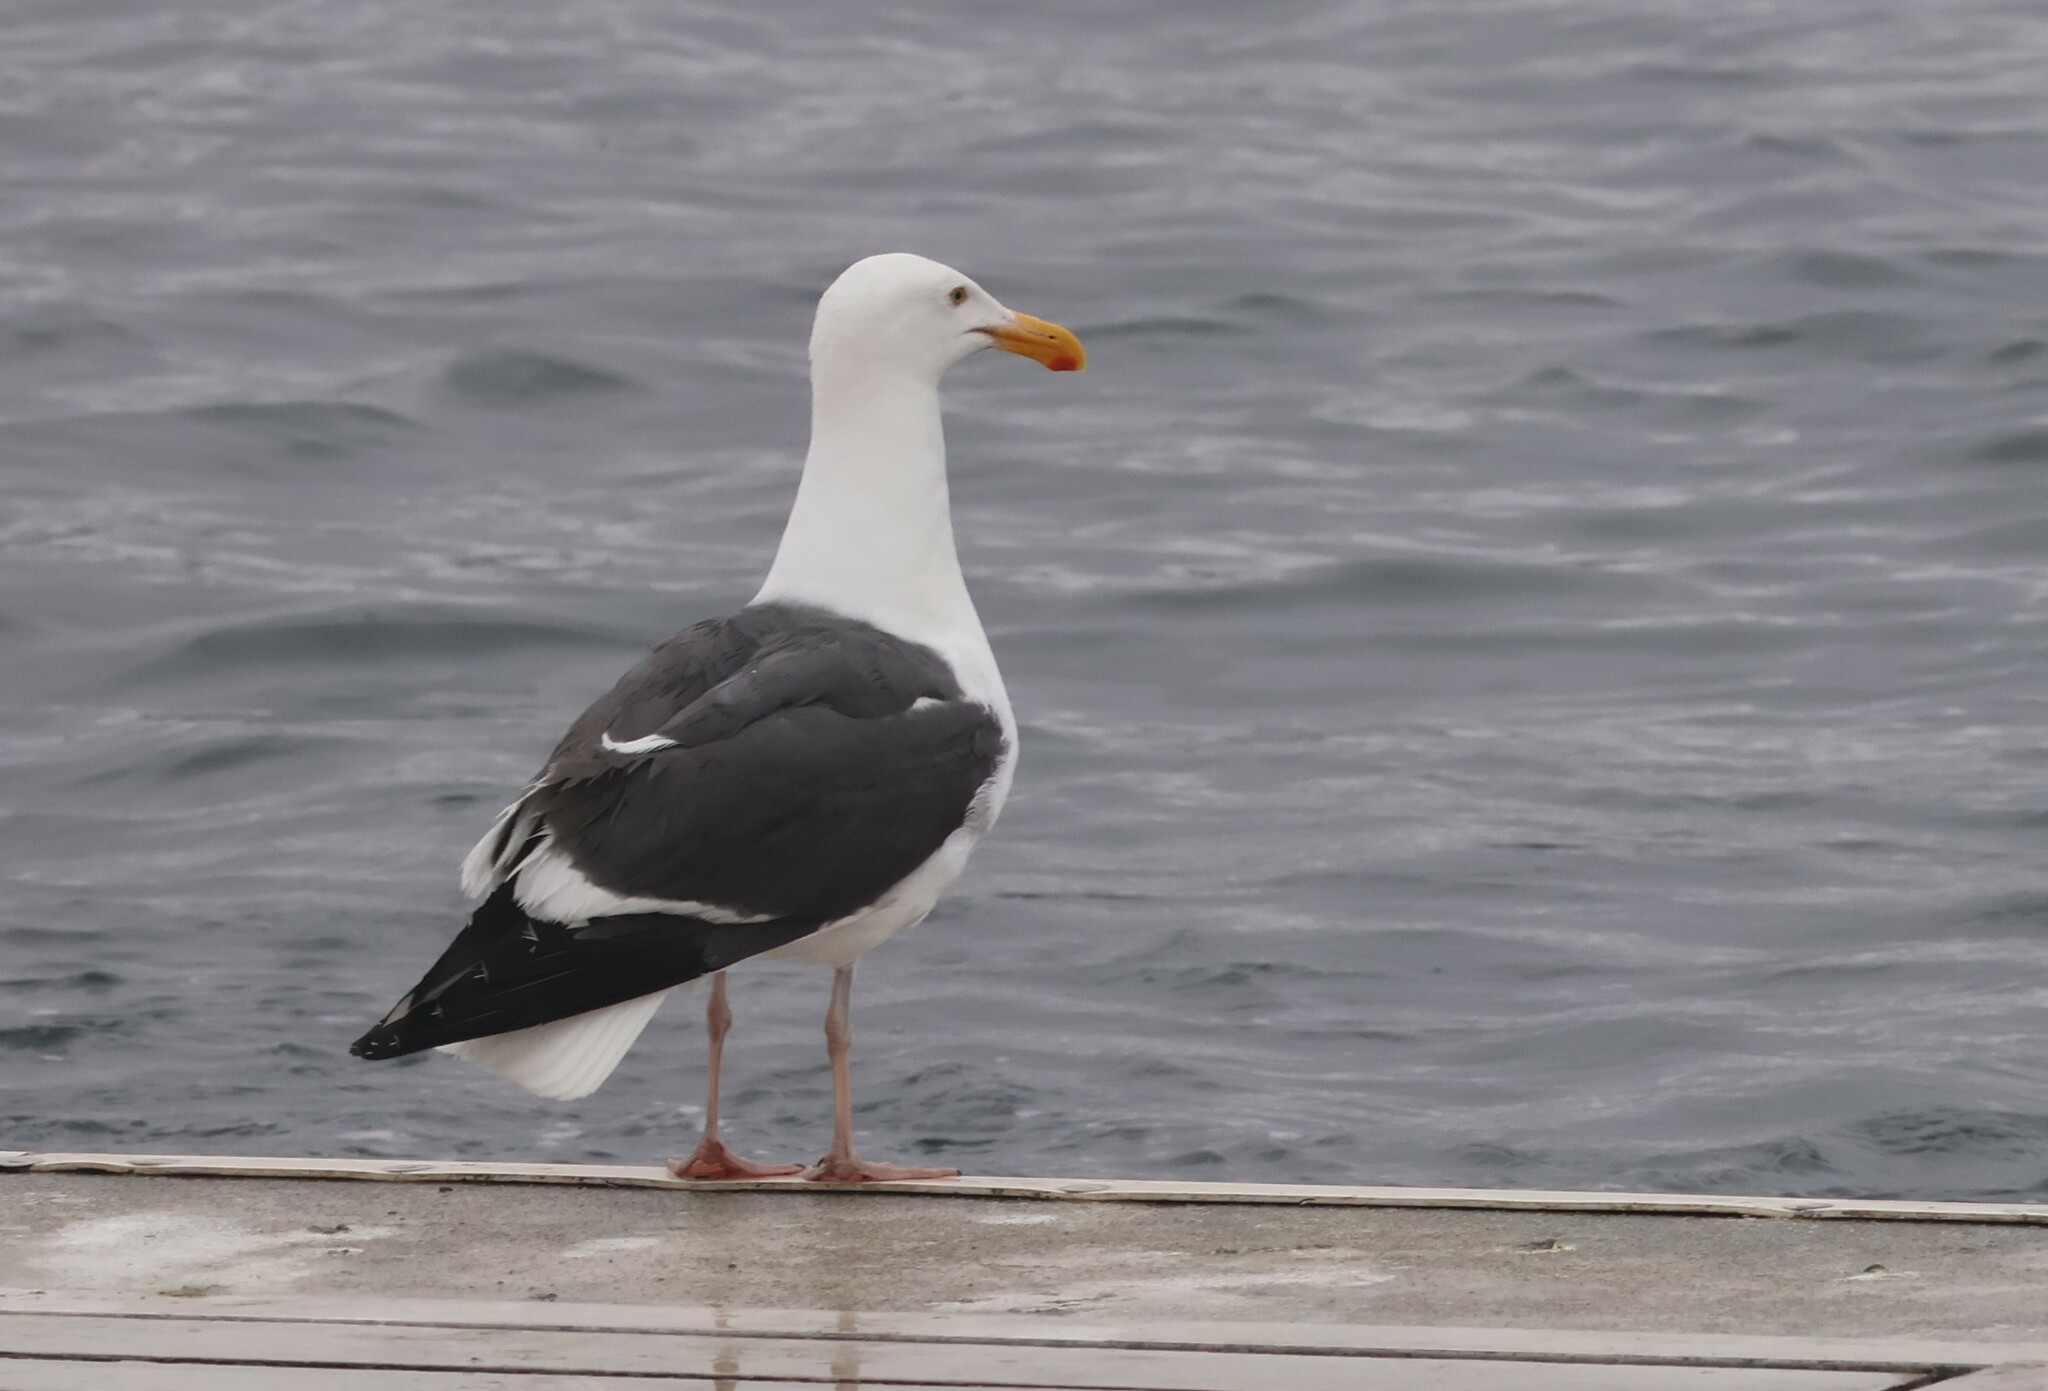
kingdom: Animalia
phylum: Chordata
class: Aves
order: Charadriiformes
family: Laridae
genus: Larus
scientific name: Larus occidentalis
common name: Western gull
